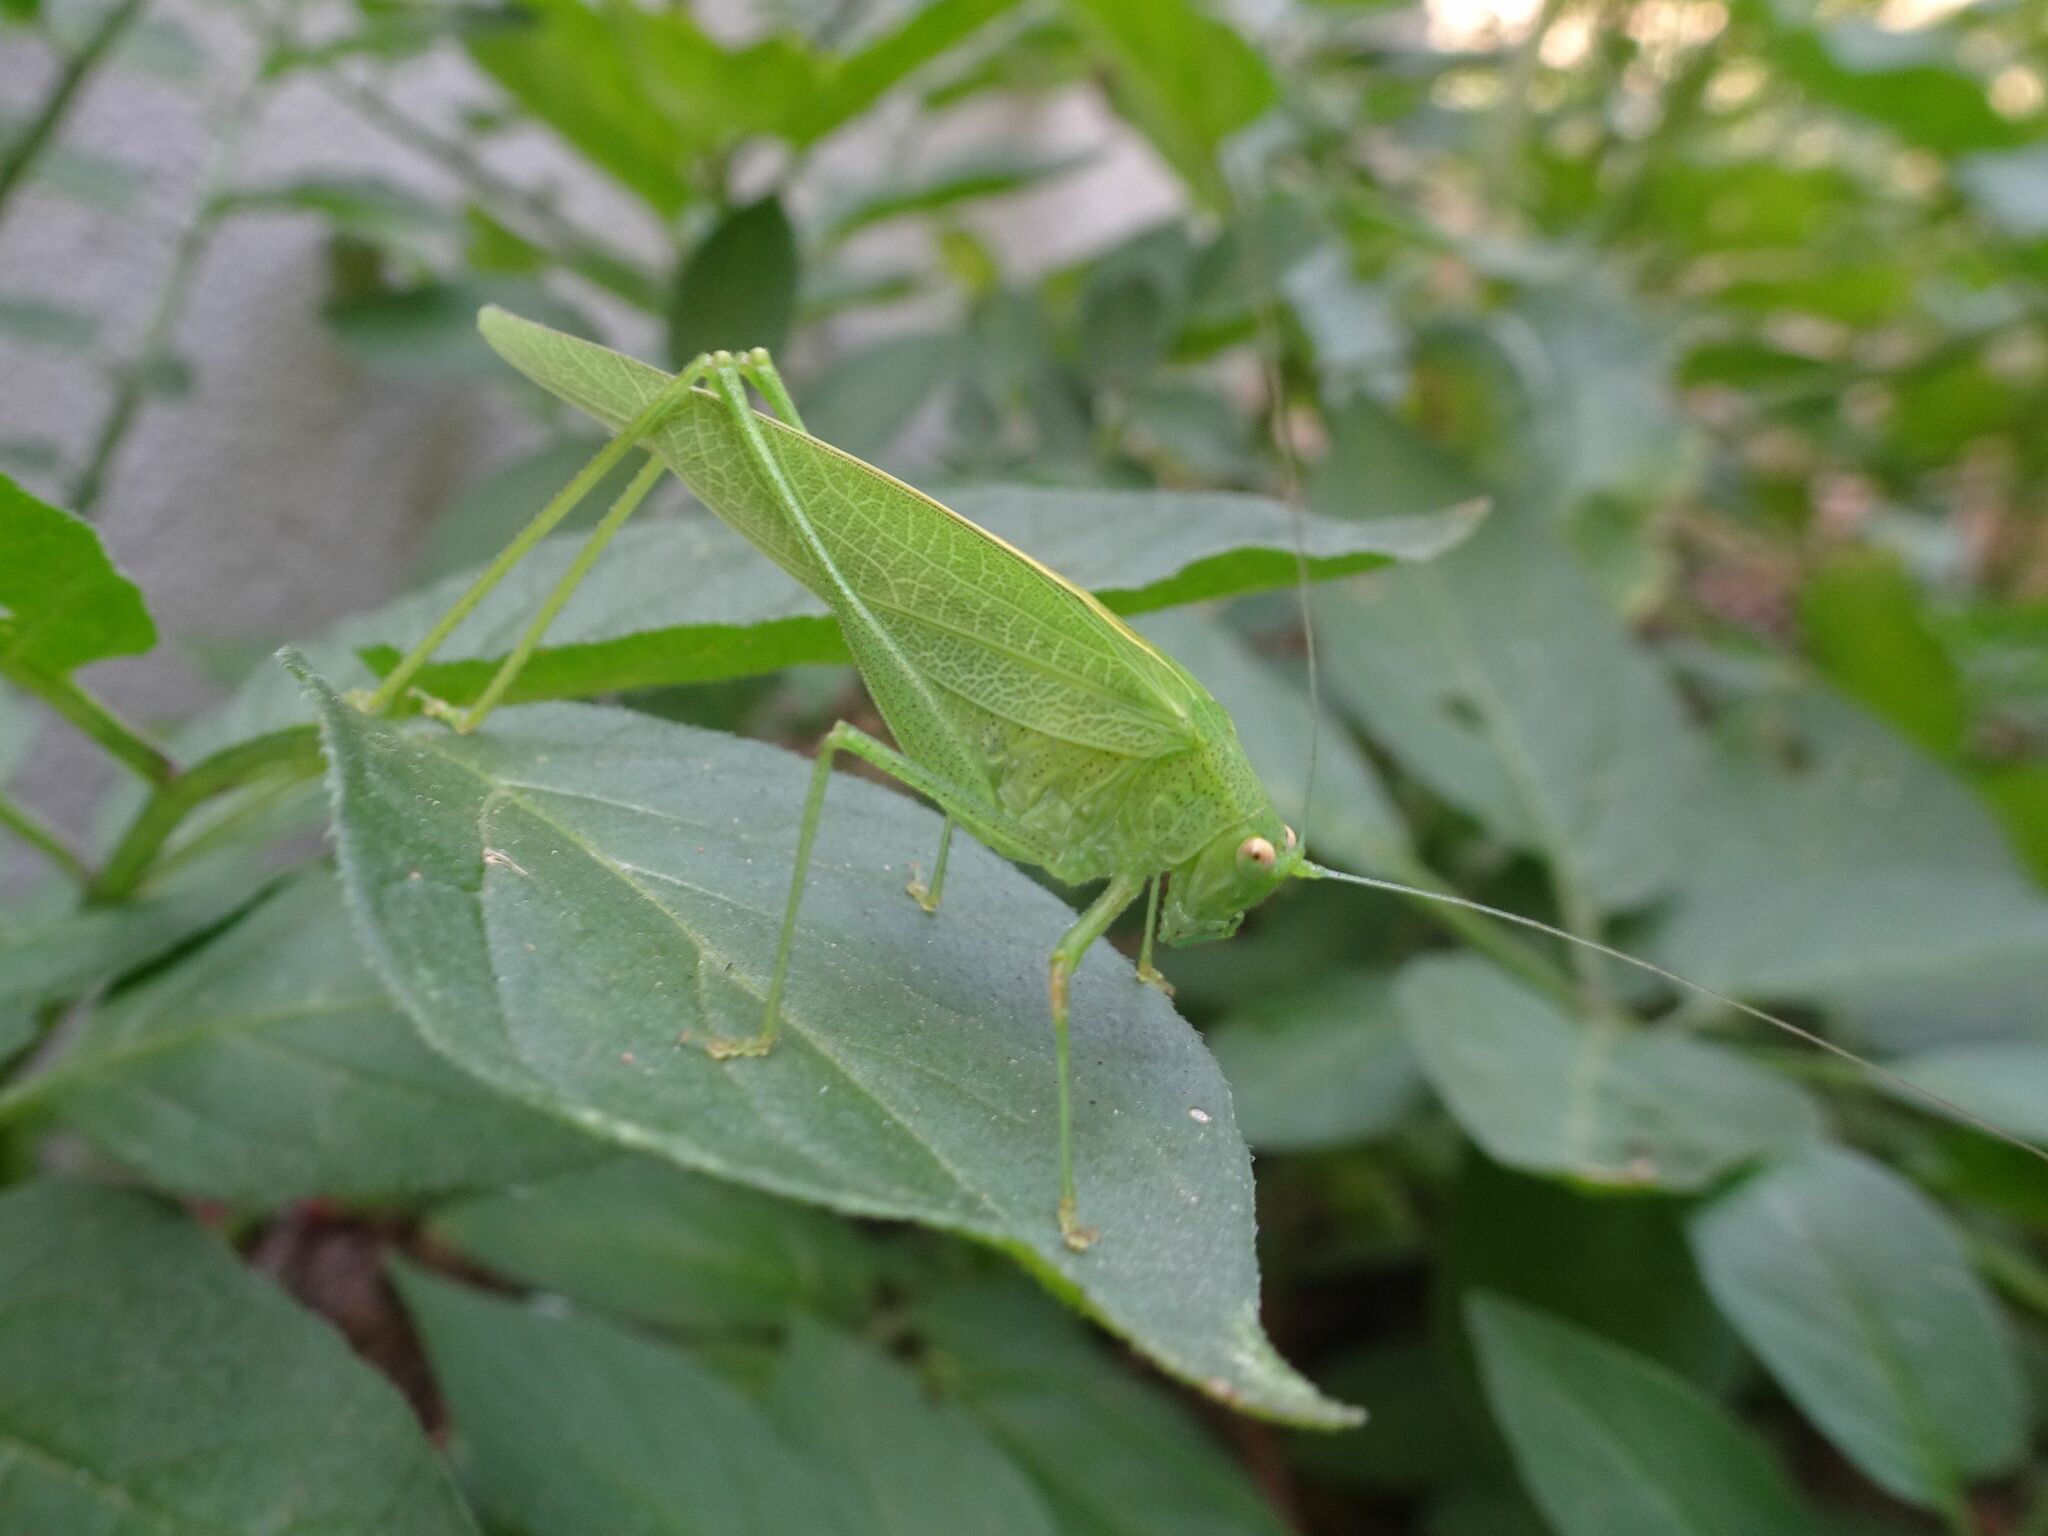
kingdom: Animalia
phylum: Arthropoda
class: Insecta
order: Orthoptera
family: Tettigoniidae
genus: Phaneroptera
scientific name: Phaneroptera nana
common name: Southern sickle bush-cricket
